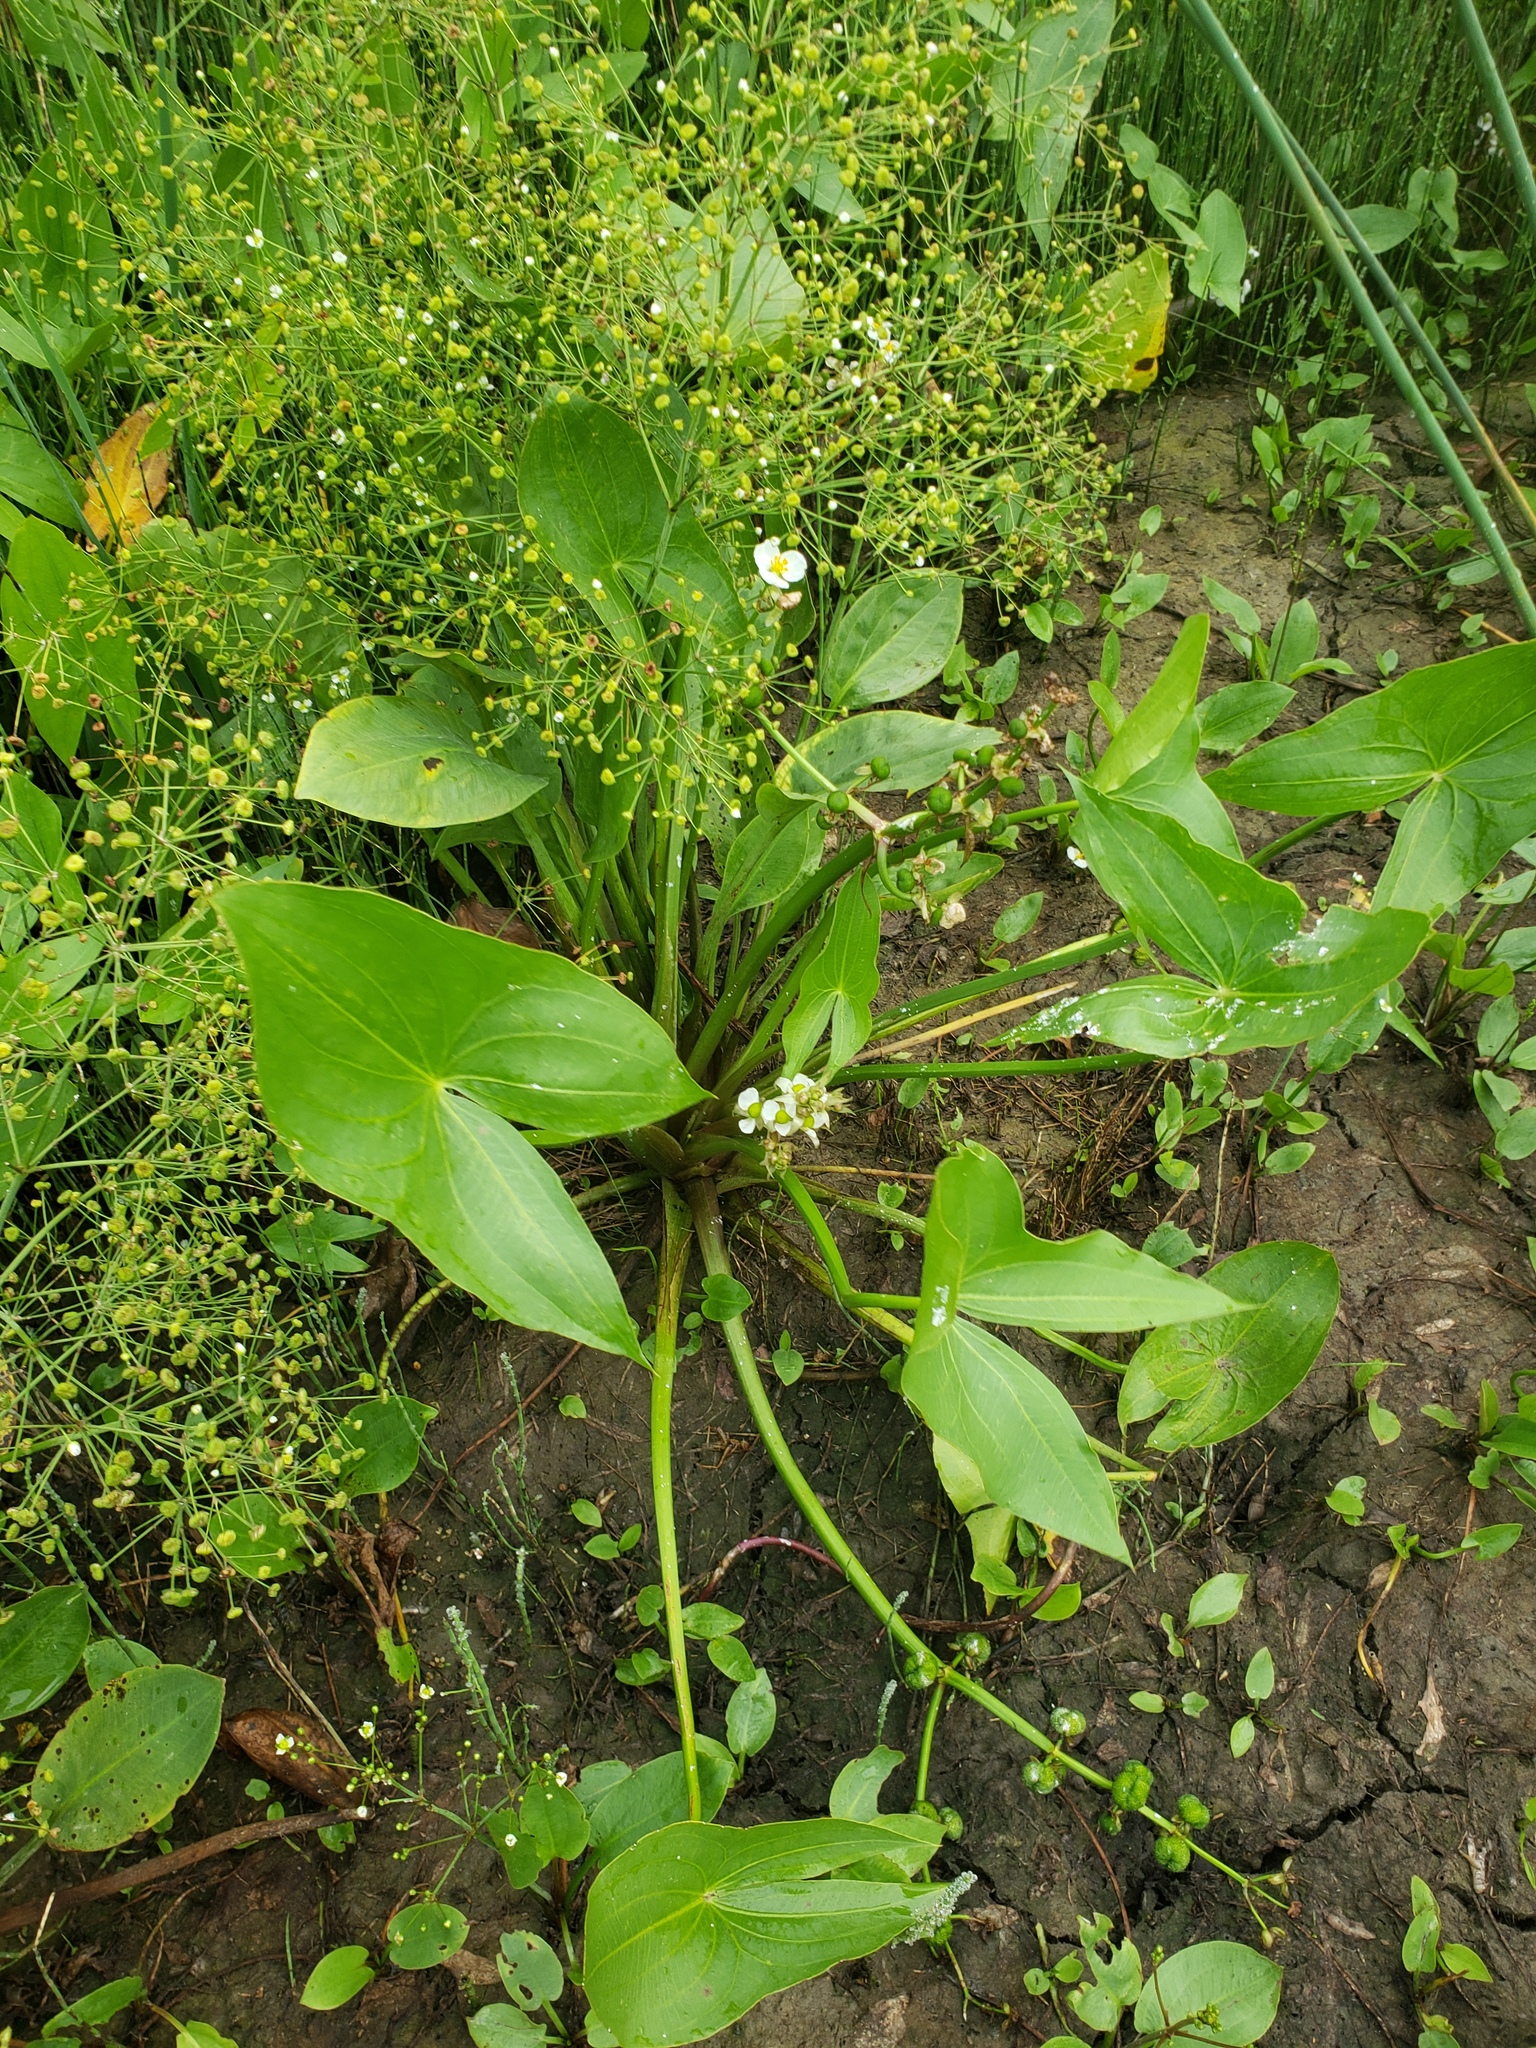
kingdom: Plantae
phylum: Tracheophyta
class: Liliopsida
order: Alismatales
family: Alismataceae
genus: Sagittaria
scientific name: Sagittaria cuneata
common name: Northern arrowhead
